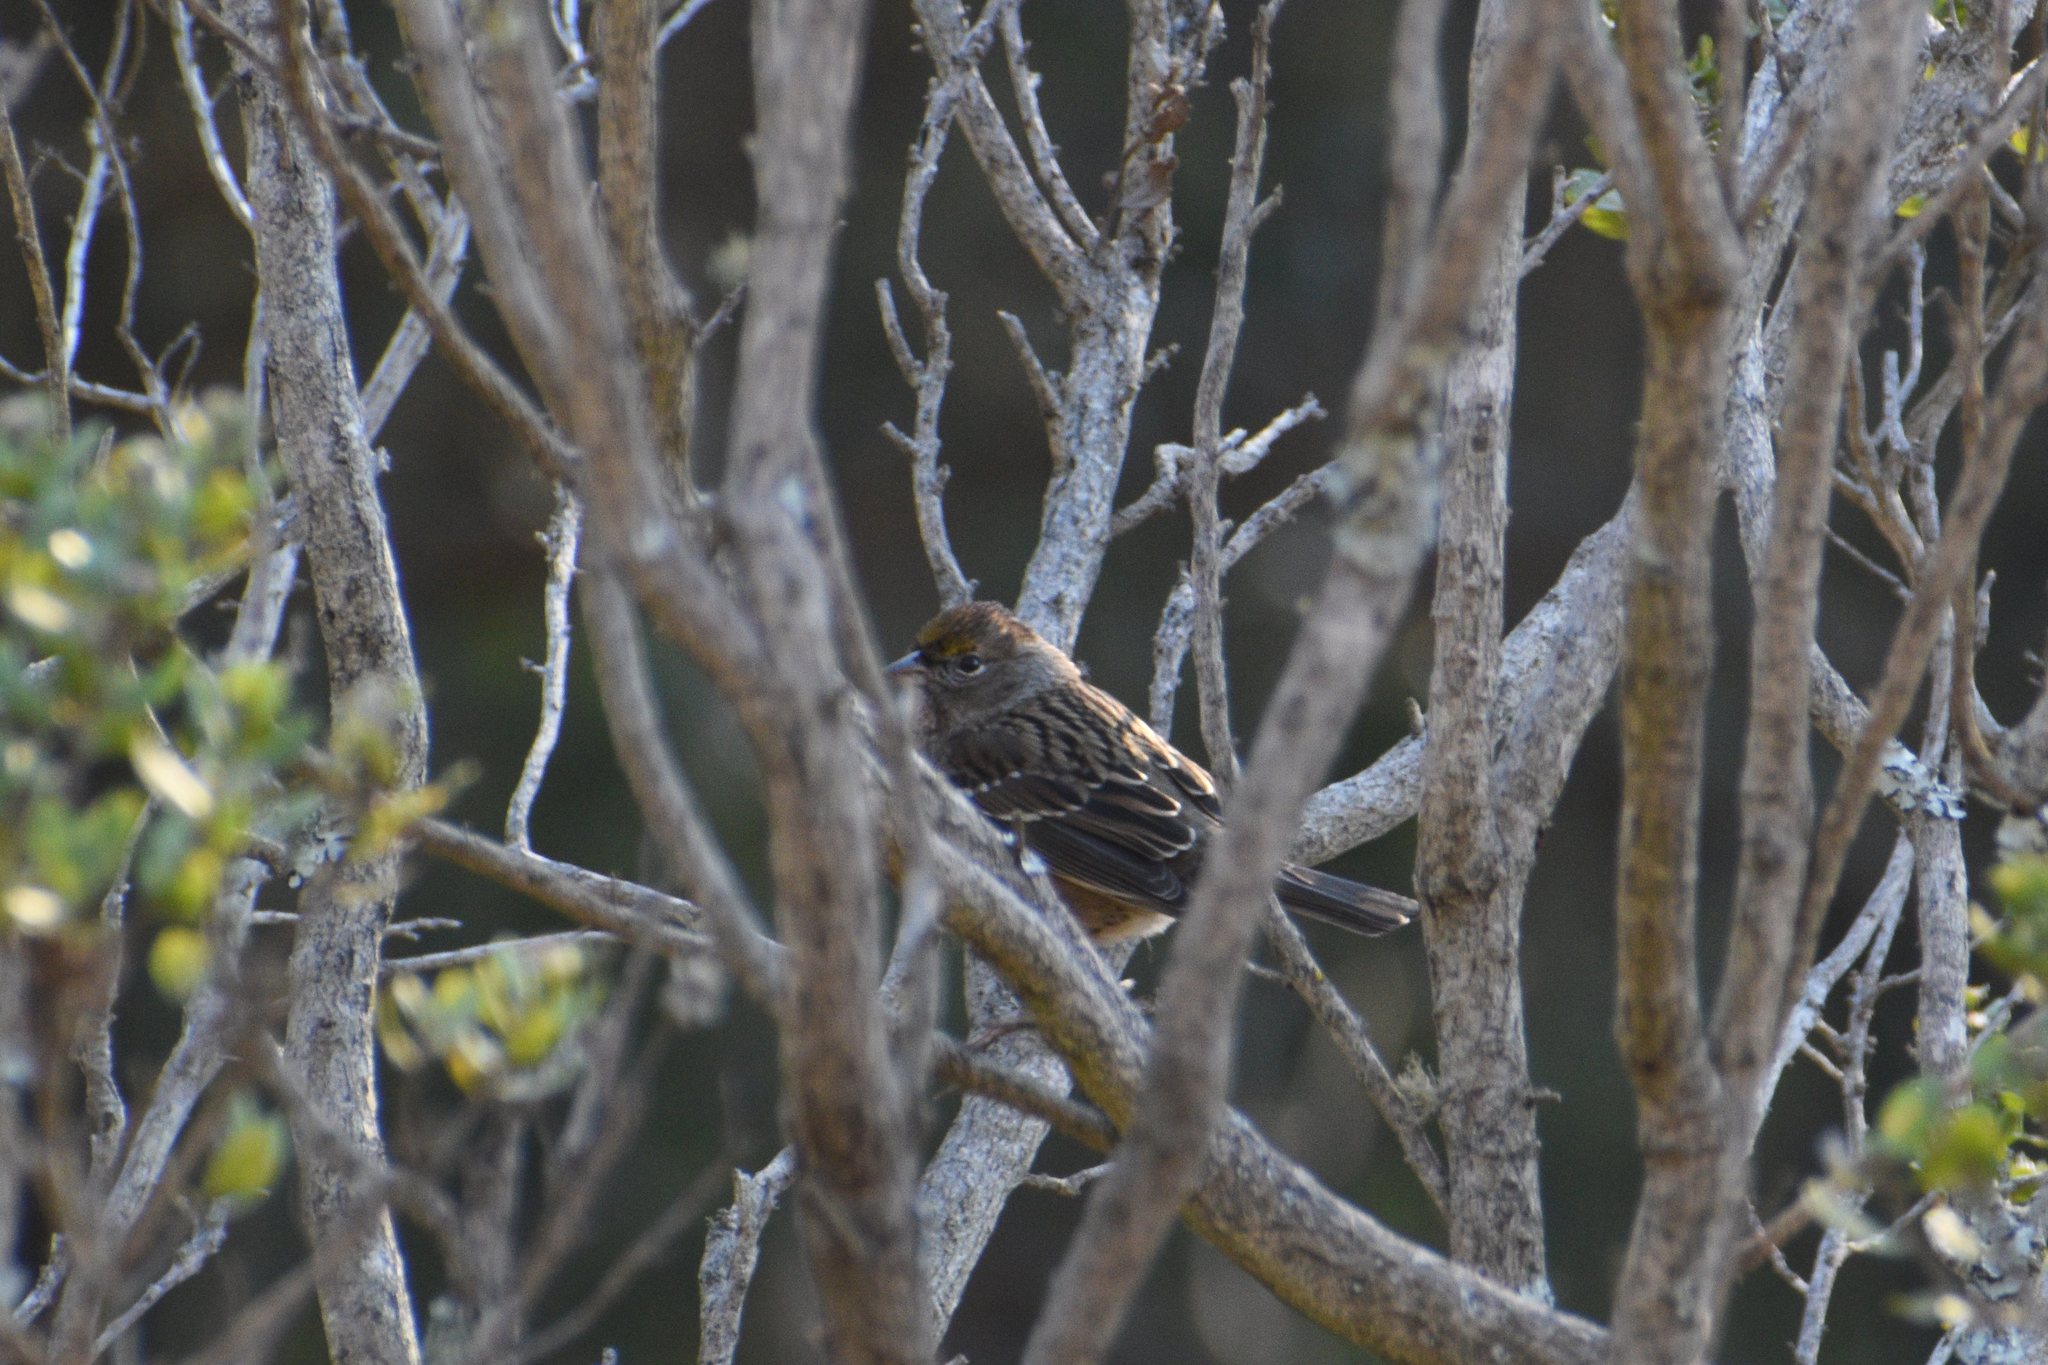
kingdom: Animalia
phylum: Chordata
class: Aves
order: Passeriformes
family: Passerellidae
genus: Zonotrichia
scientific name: Zonotrichia atricapilla
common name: Golden-crowned sparrow
